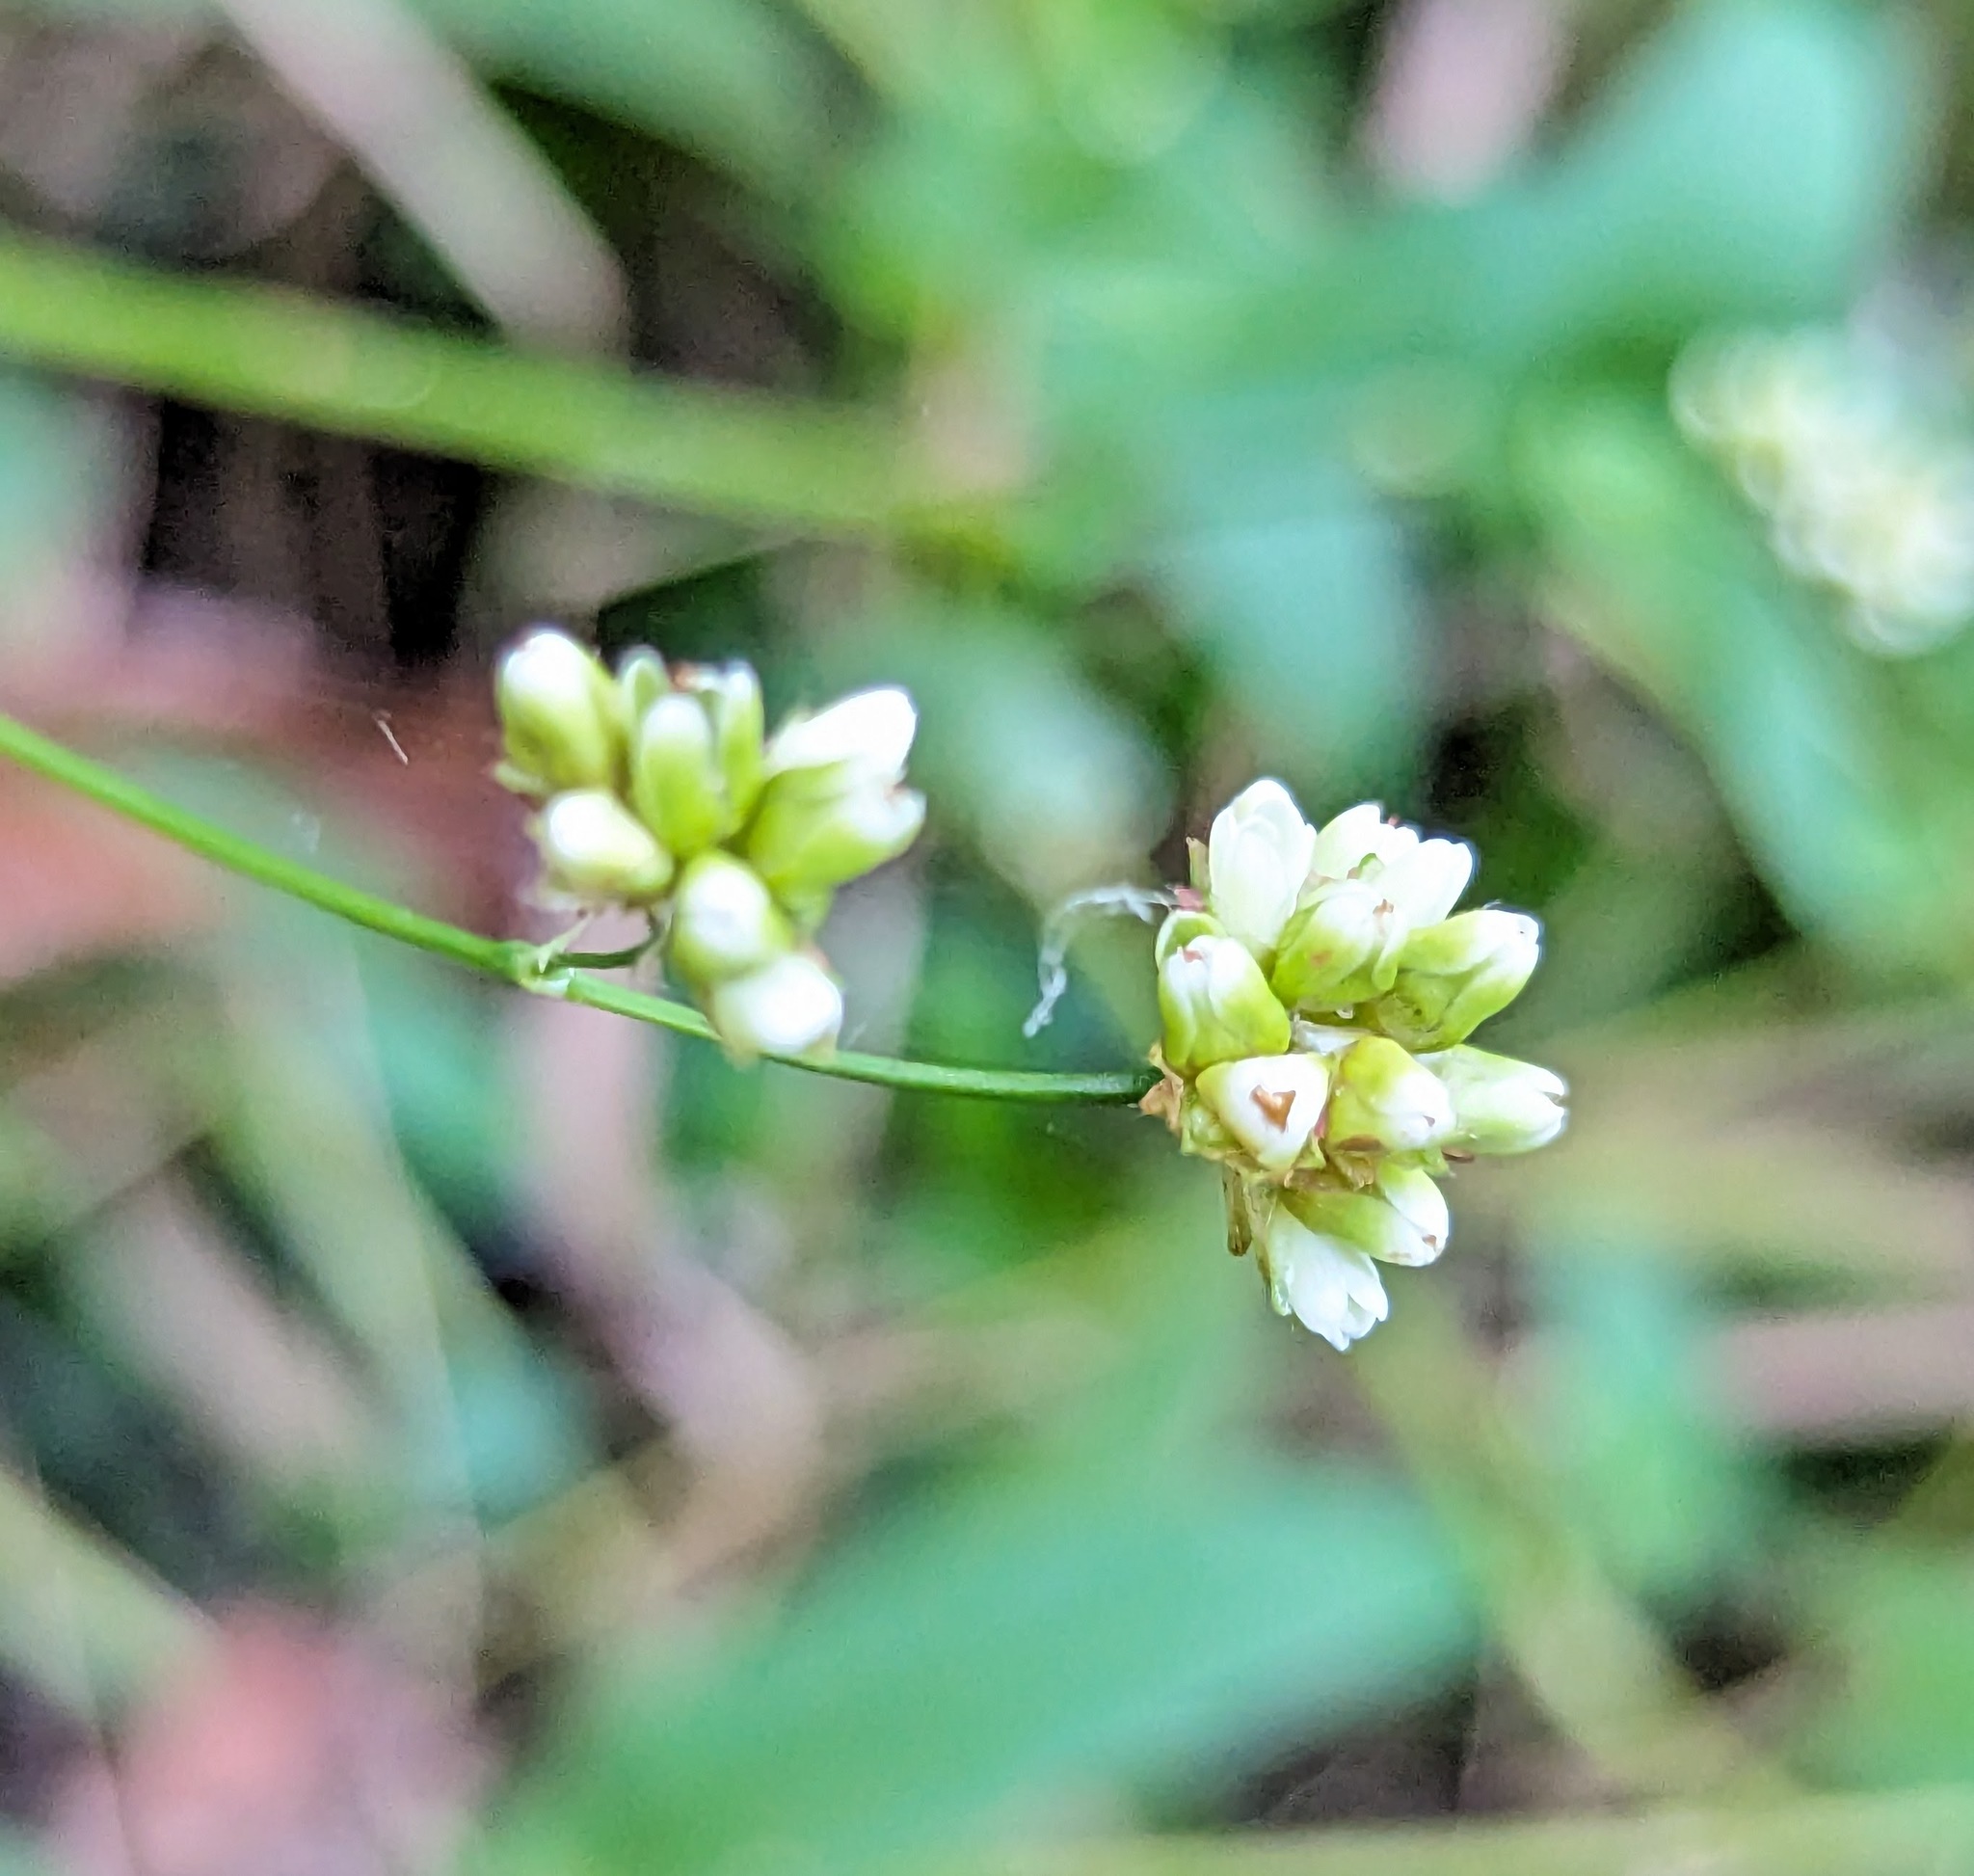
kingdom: Plantae
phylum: Tracheophyta
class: Magnoliopsida
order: Caryophyllales
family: Polygonaceae
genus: Persicaria
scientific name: Persicaria sagittata
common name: American tearthumb
